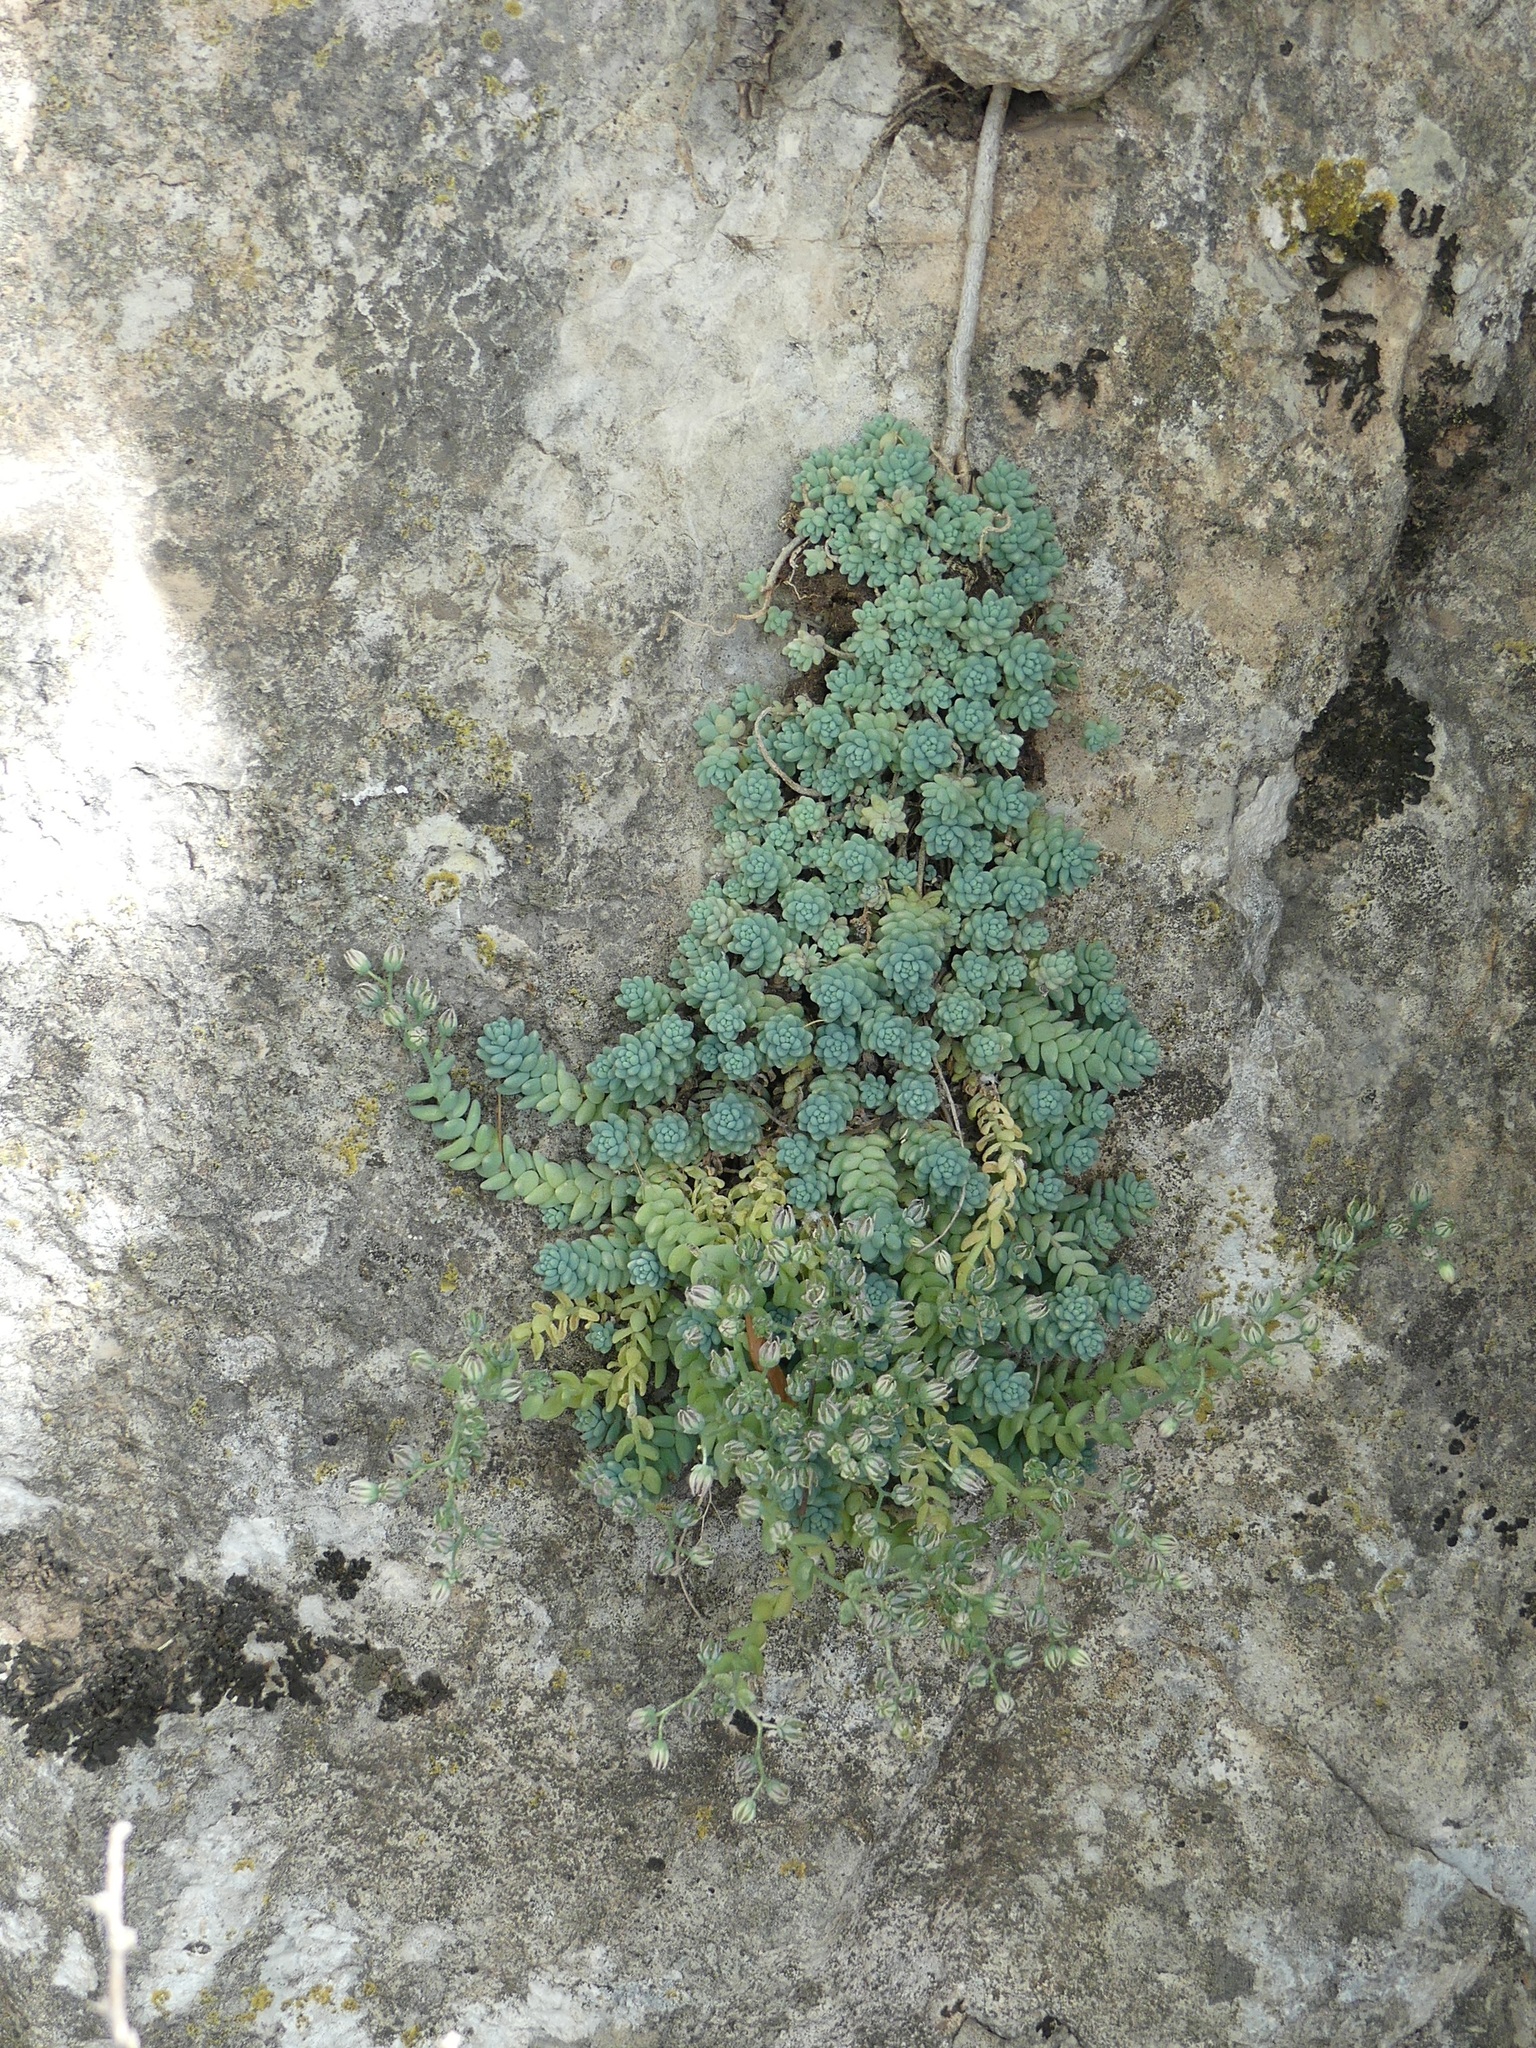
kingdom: Plantae
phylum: Tracheophyta
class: Magnoliopsida
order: Saxifragales
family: Crassulaceae
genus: Sedum
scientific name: Sedum dasyphyllum
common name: Thick-leaf stonecrop
